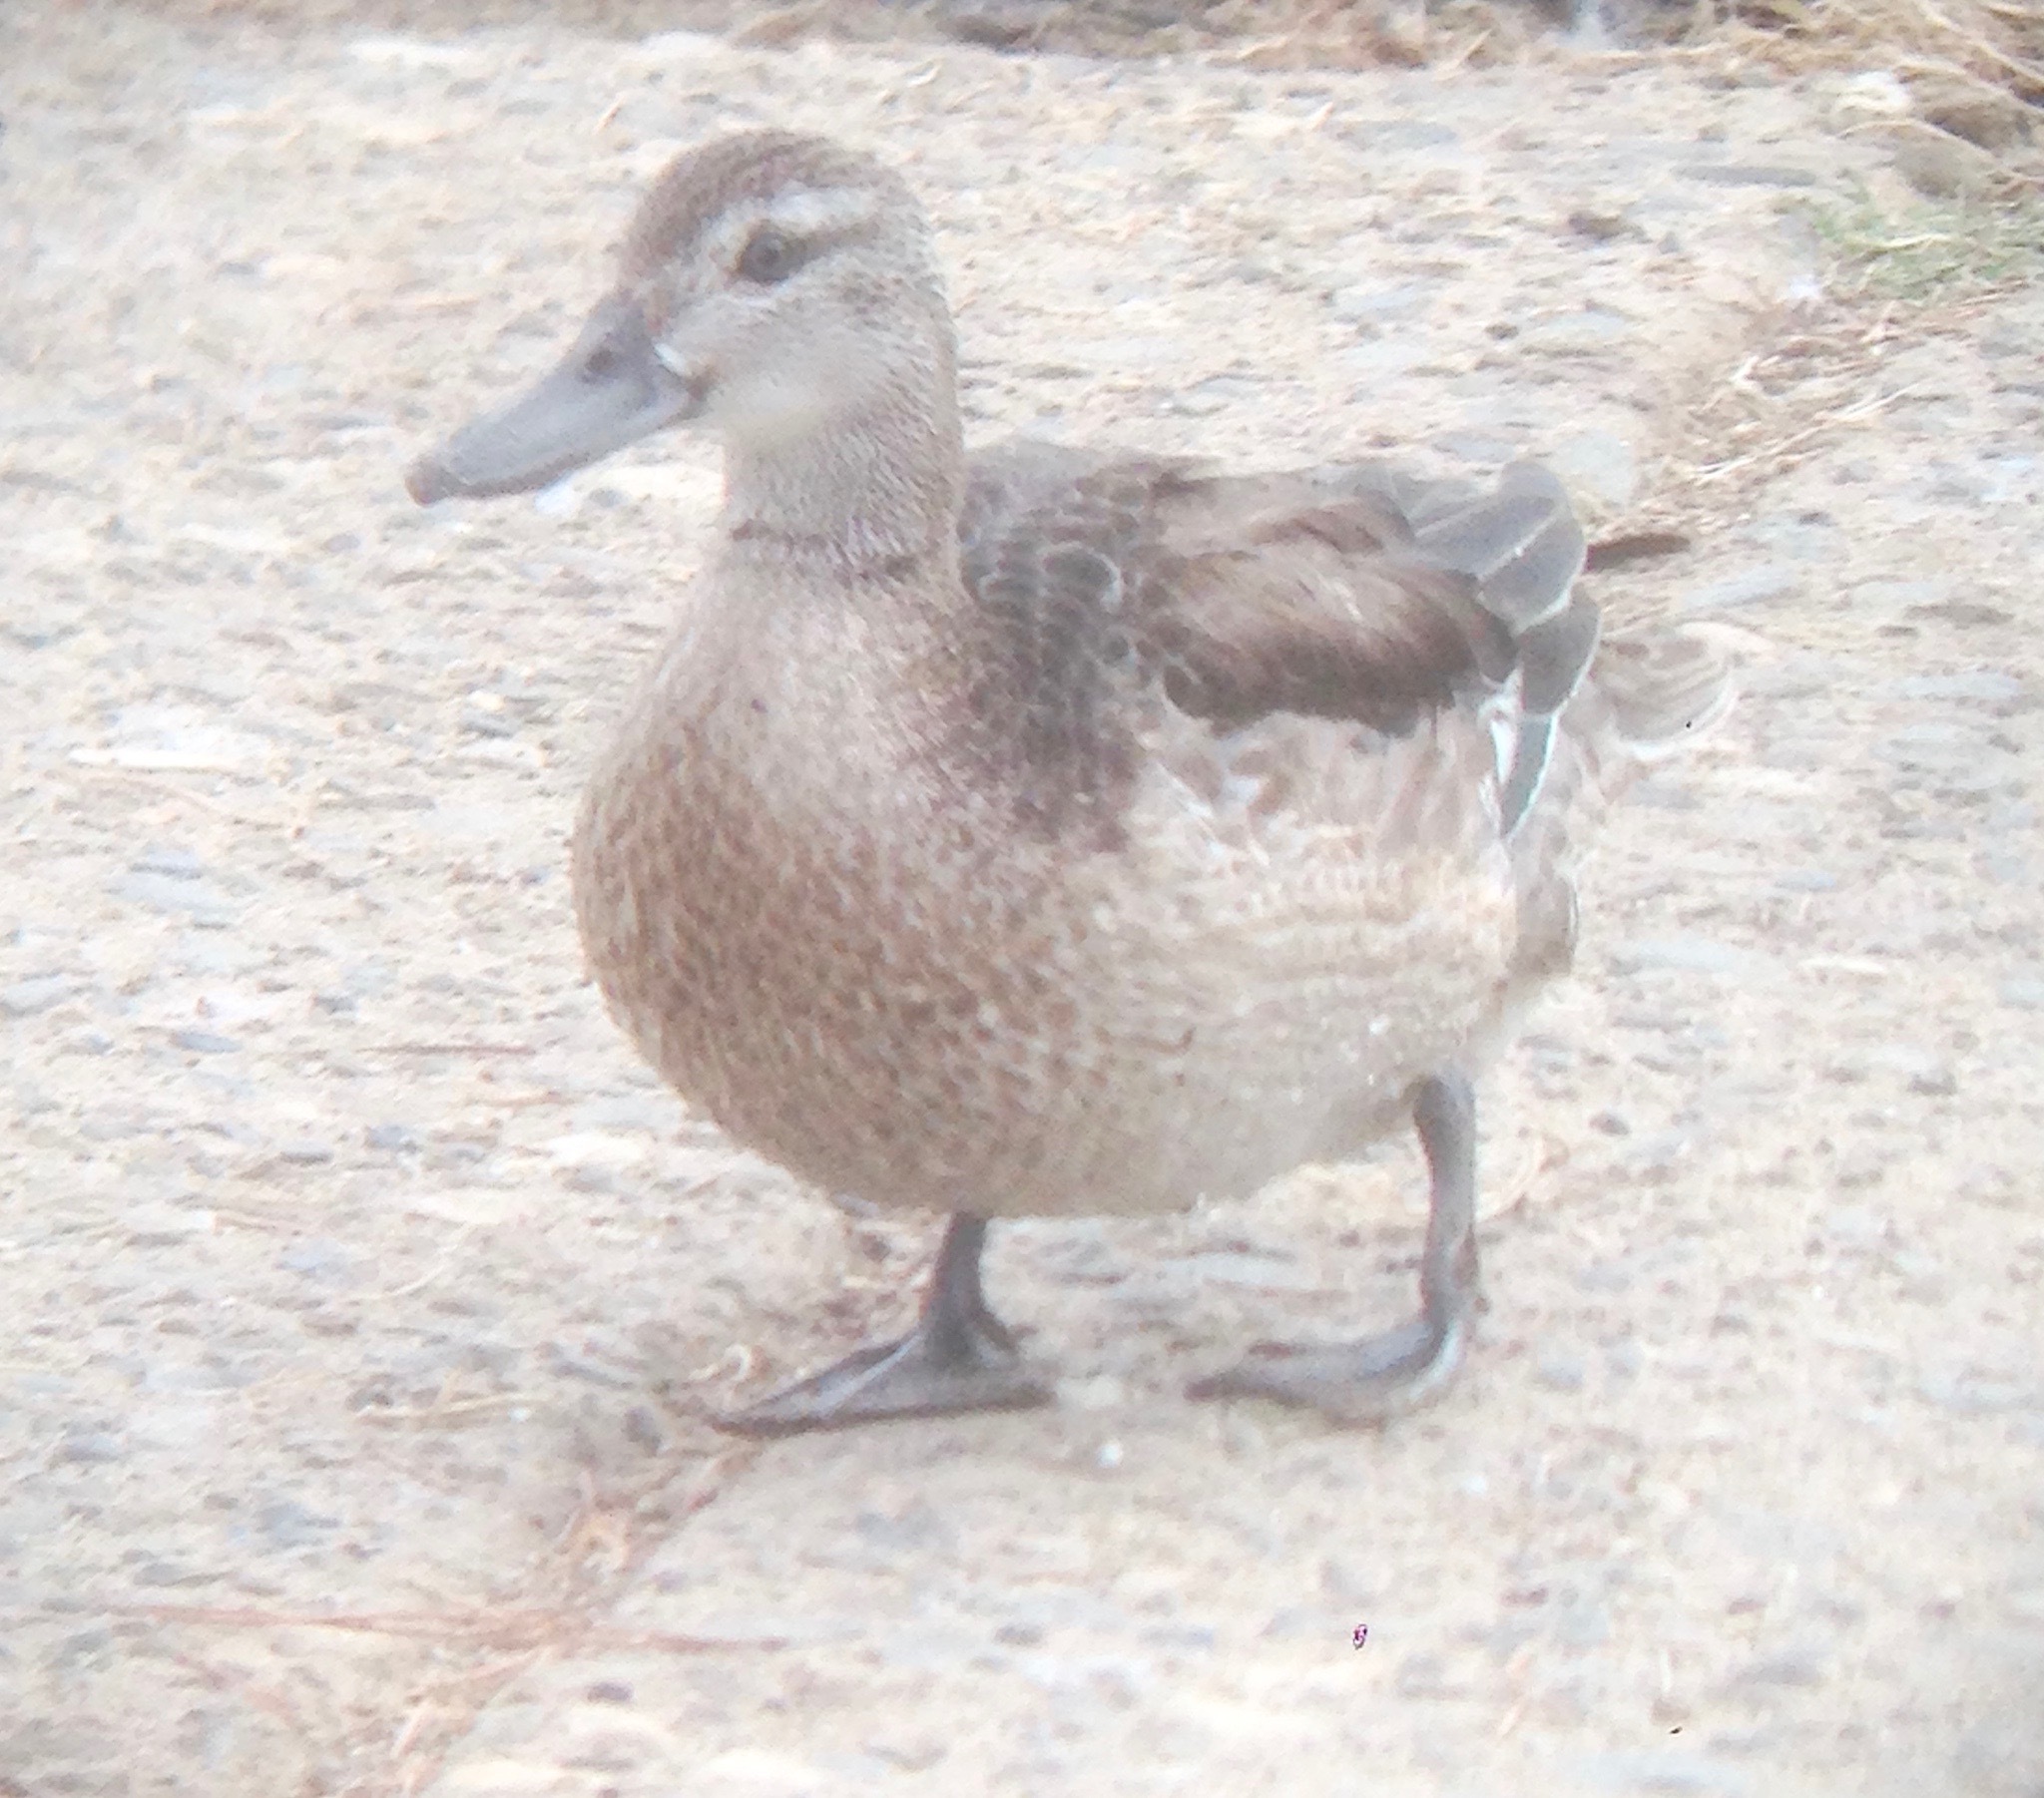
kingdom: Animalia
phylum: Chordata
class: Aves
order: Anseriformes
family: Anatidae
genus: Spatula
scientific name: Spatula querquedula
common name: Garganey
